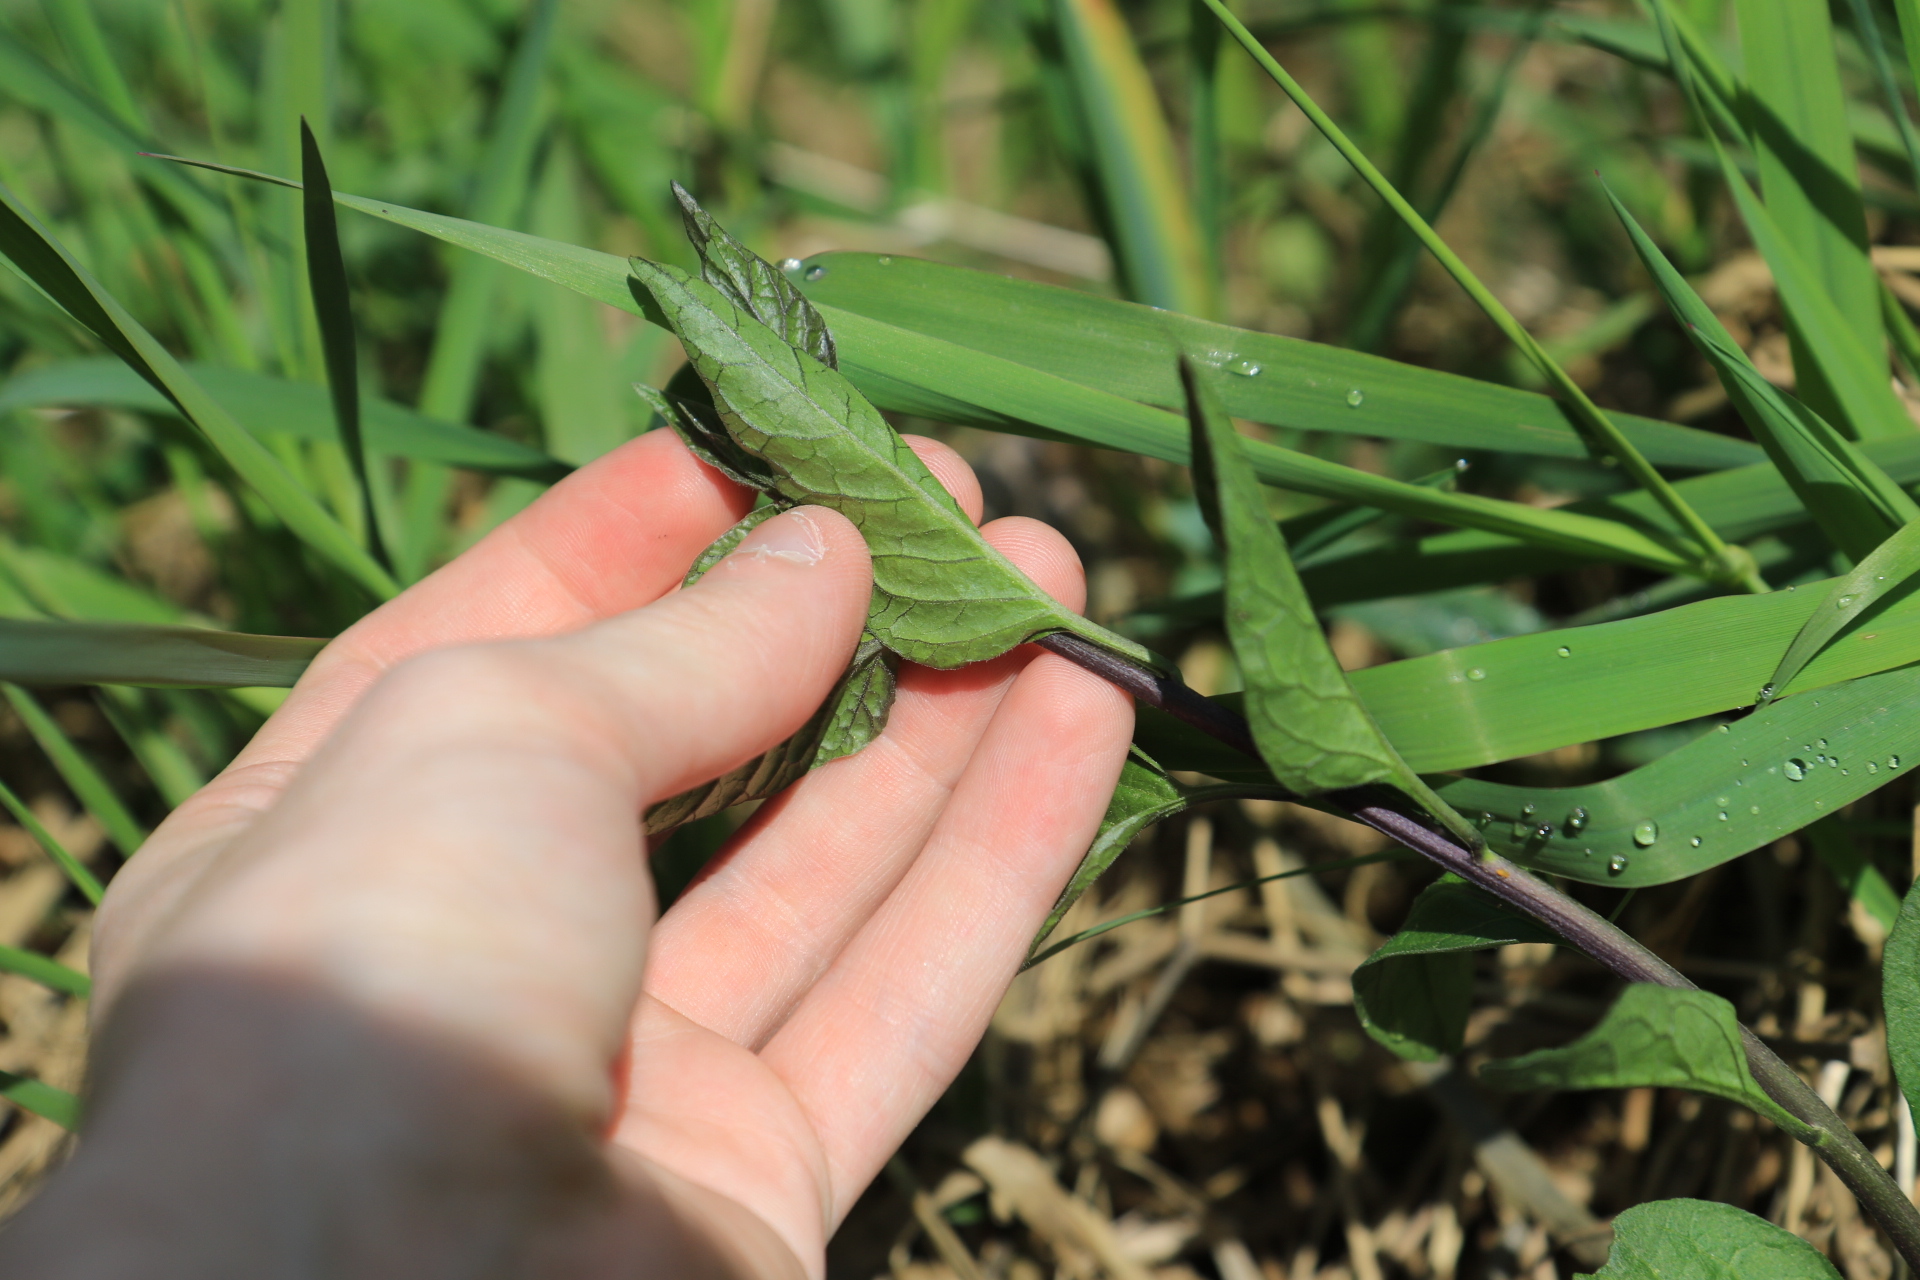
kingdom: Plantae
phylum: Tracheophyta
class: Magnoliopsida
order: Solanales
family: Solanaceae
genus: Solanum
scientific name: Solanum dulcamara
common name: Climbing nightshade
